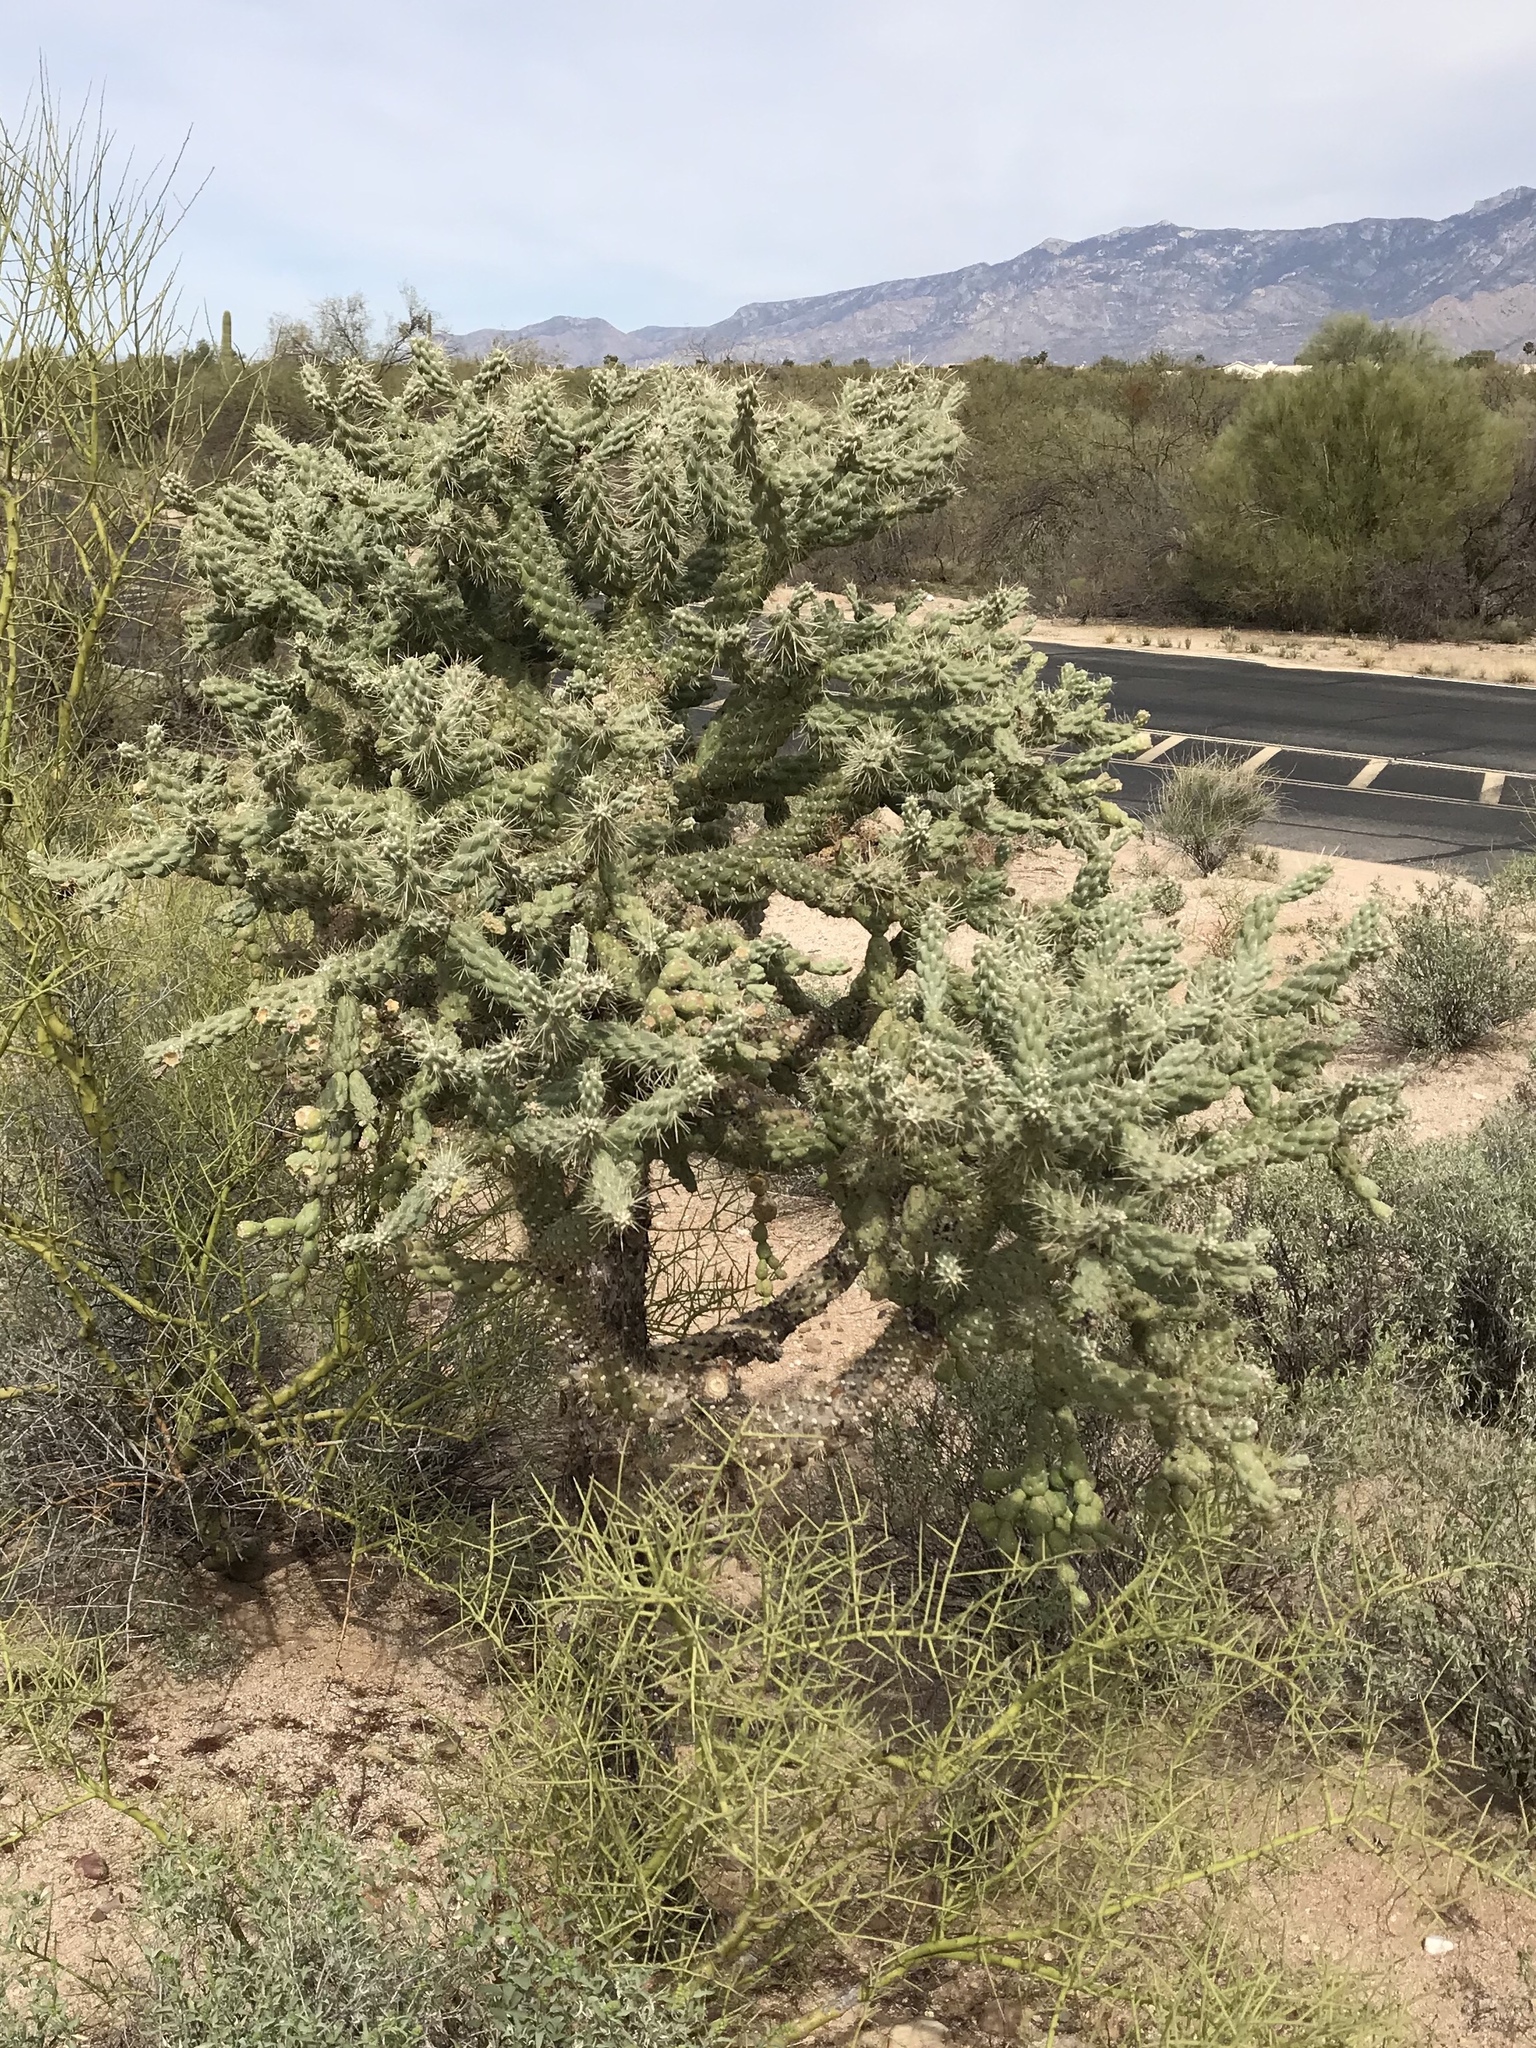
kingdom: Plantae
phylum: Tracheophyta
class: Magnoliopsida
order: Caryophyllales
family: Cactaceae
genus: Cylindropuntia
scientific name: Cylindropuntia fulgida
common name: Jumping cholla
